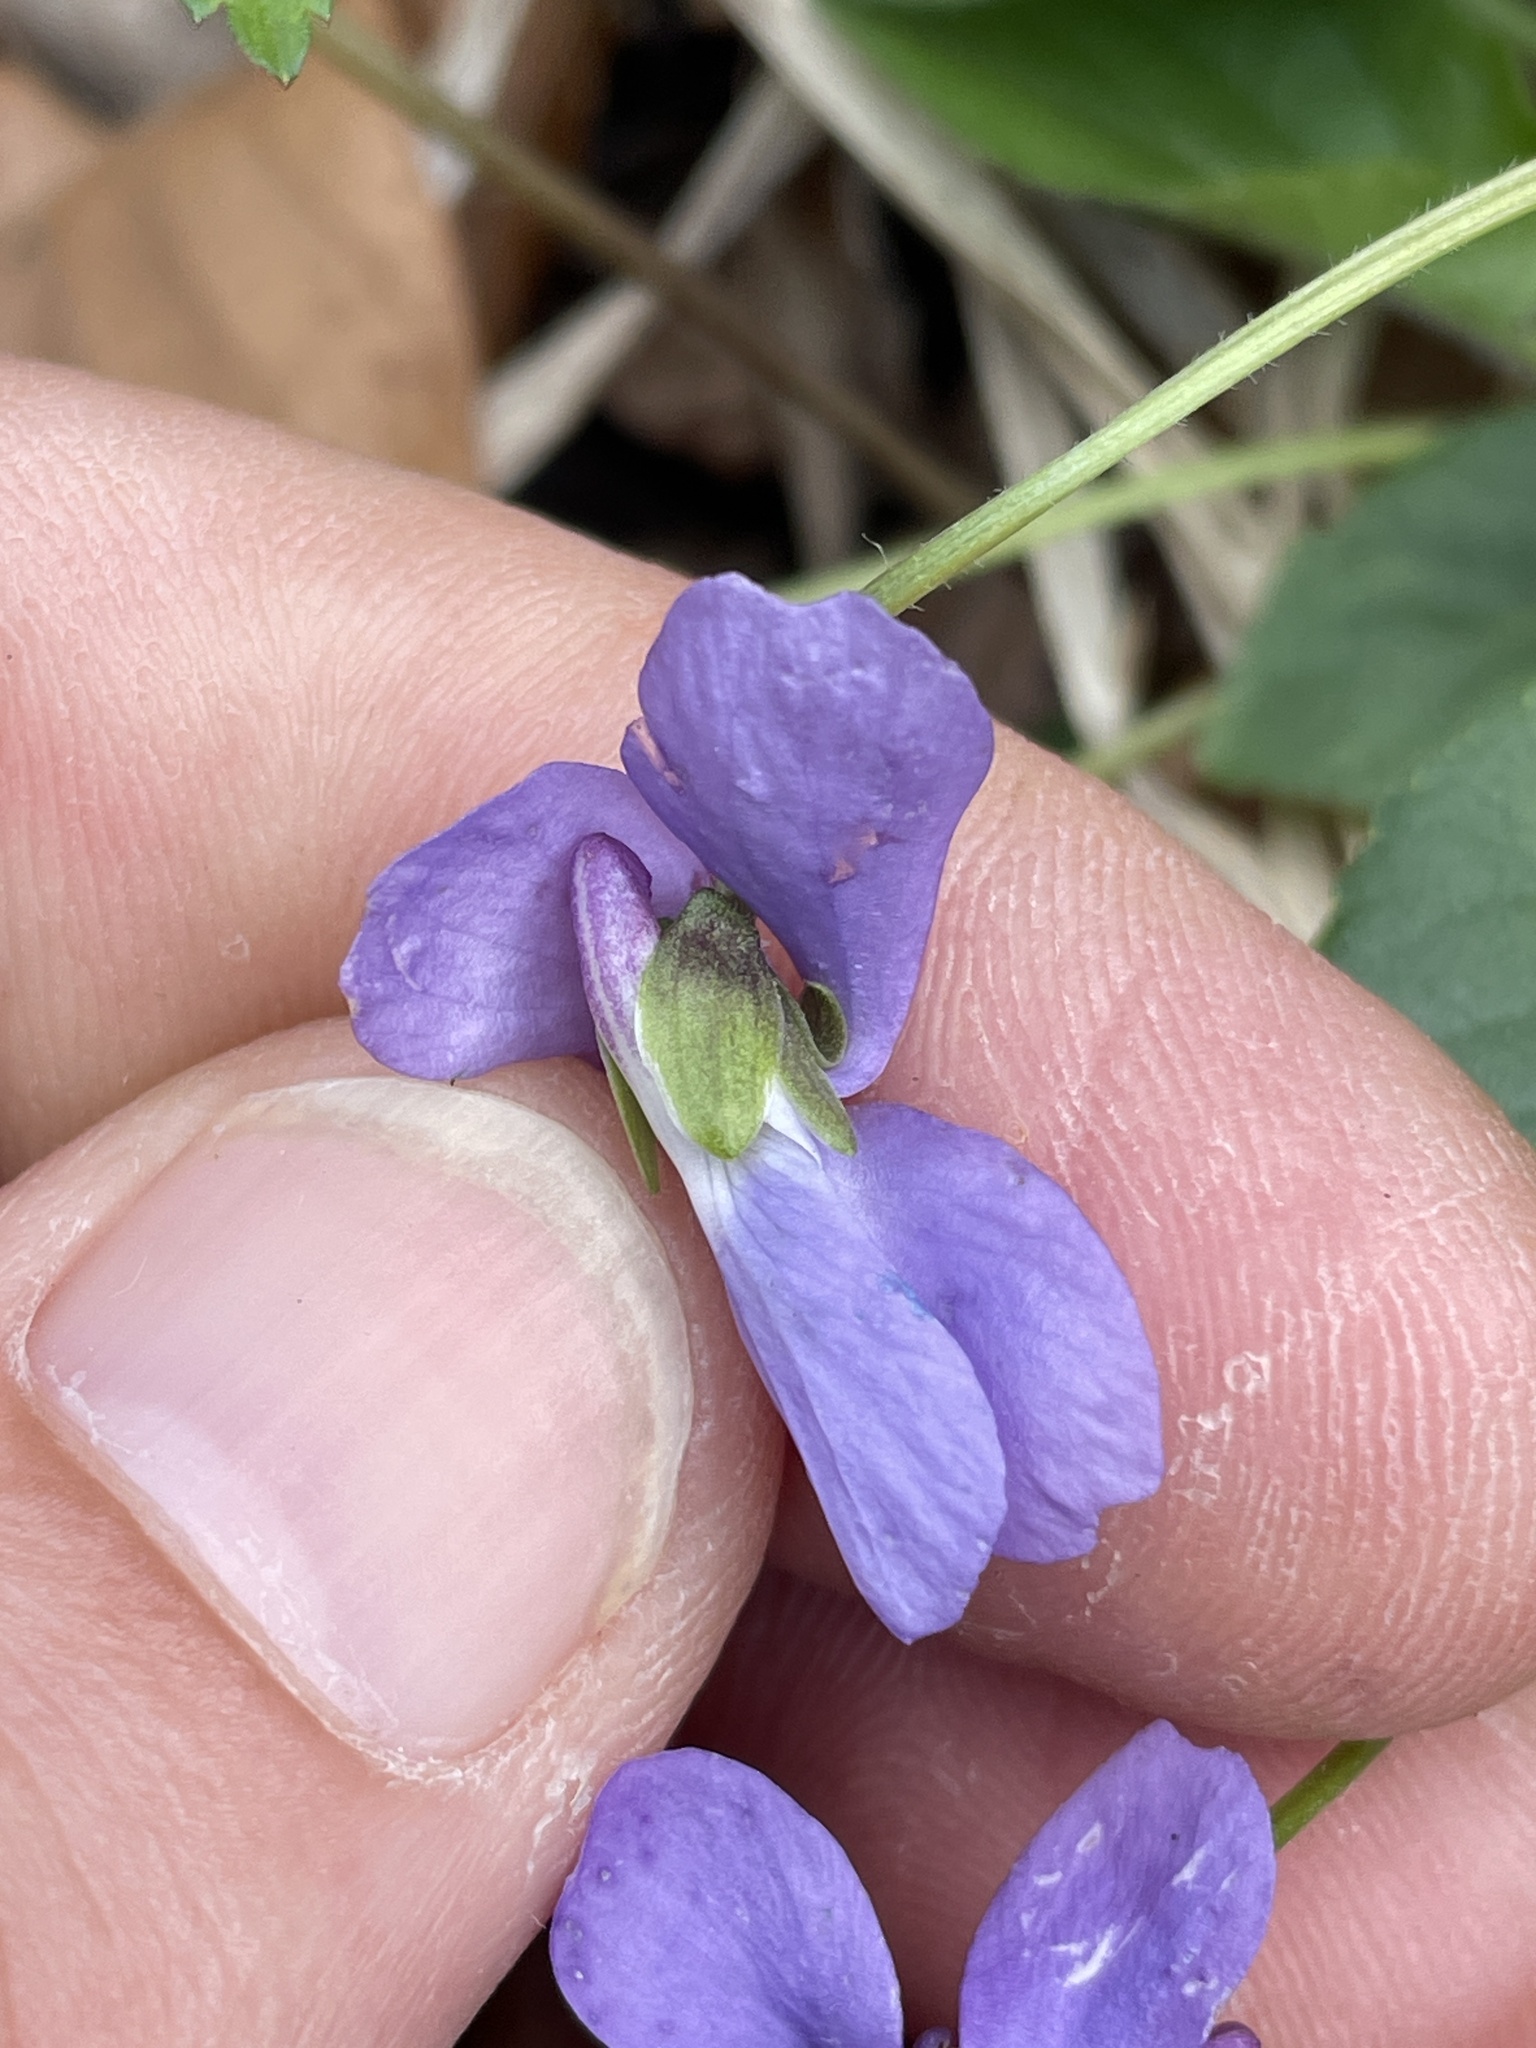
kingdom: Plantae
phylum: Tracheophyta
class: Magnoliopsida
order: Malpighiales
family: Violaceae
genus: Viola
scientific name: Viola hirta
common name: Hairy violet
